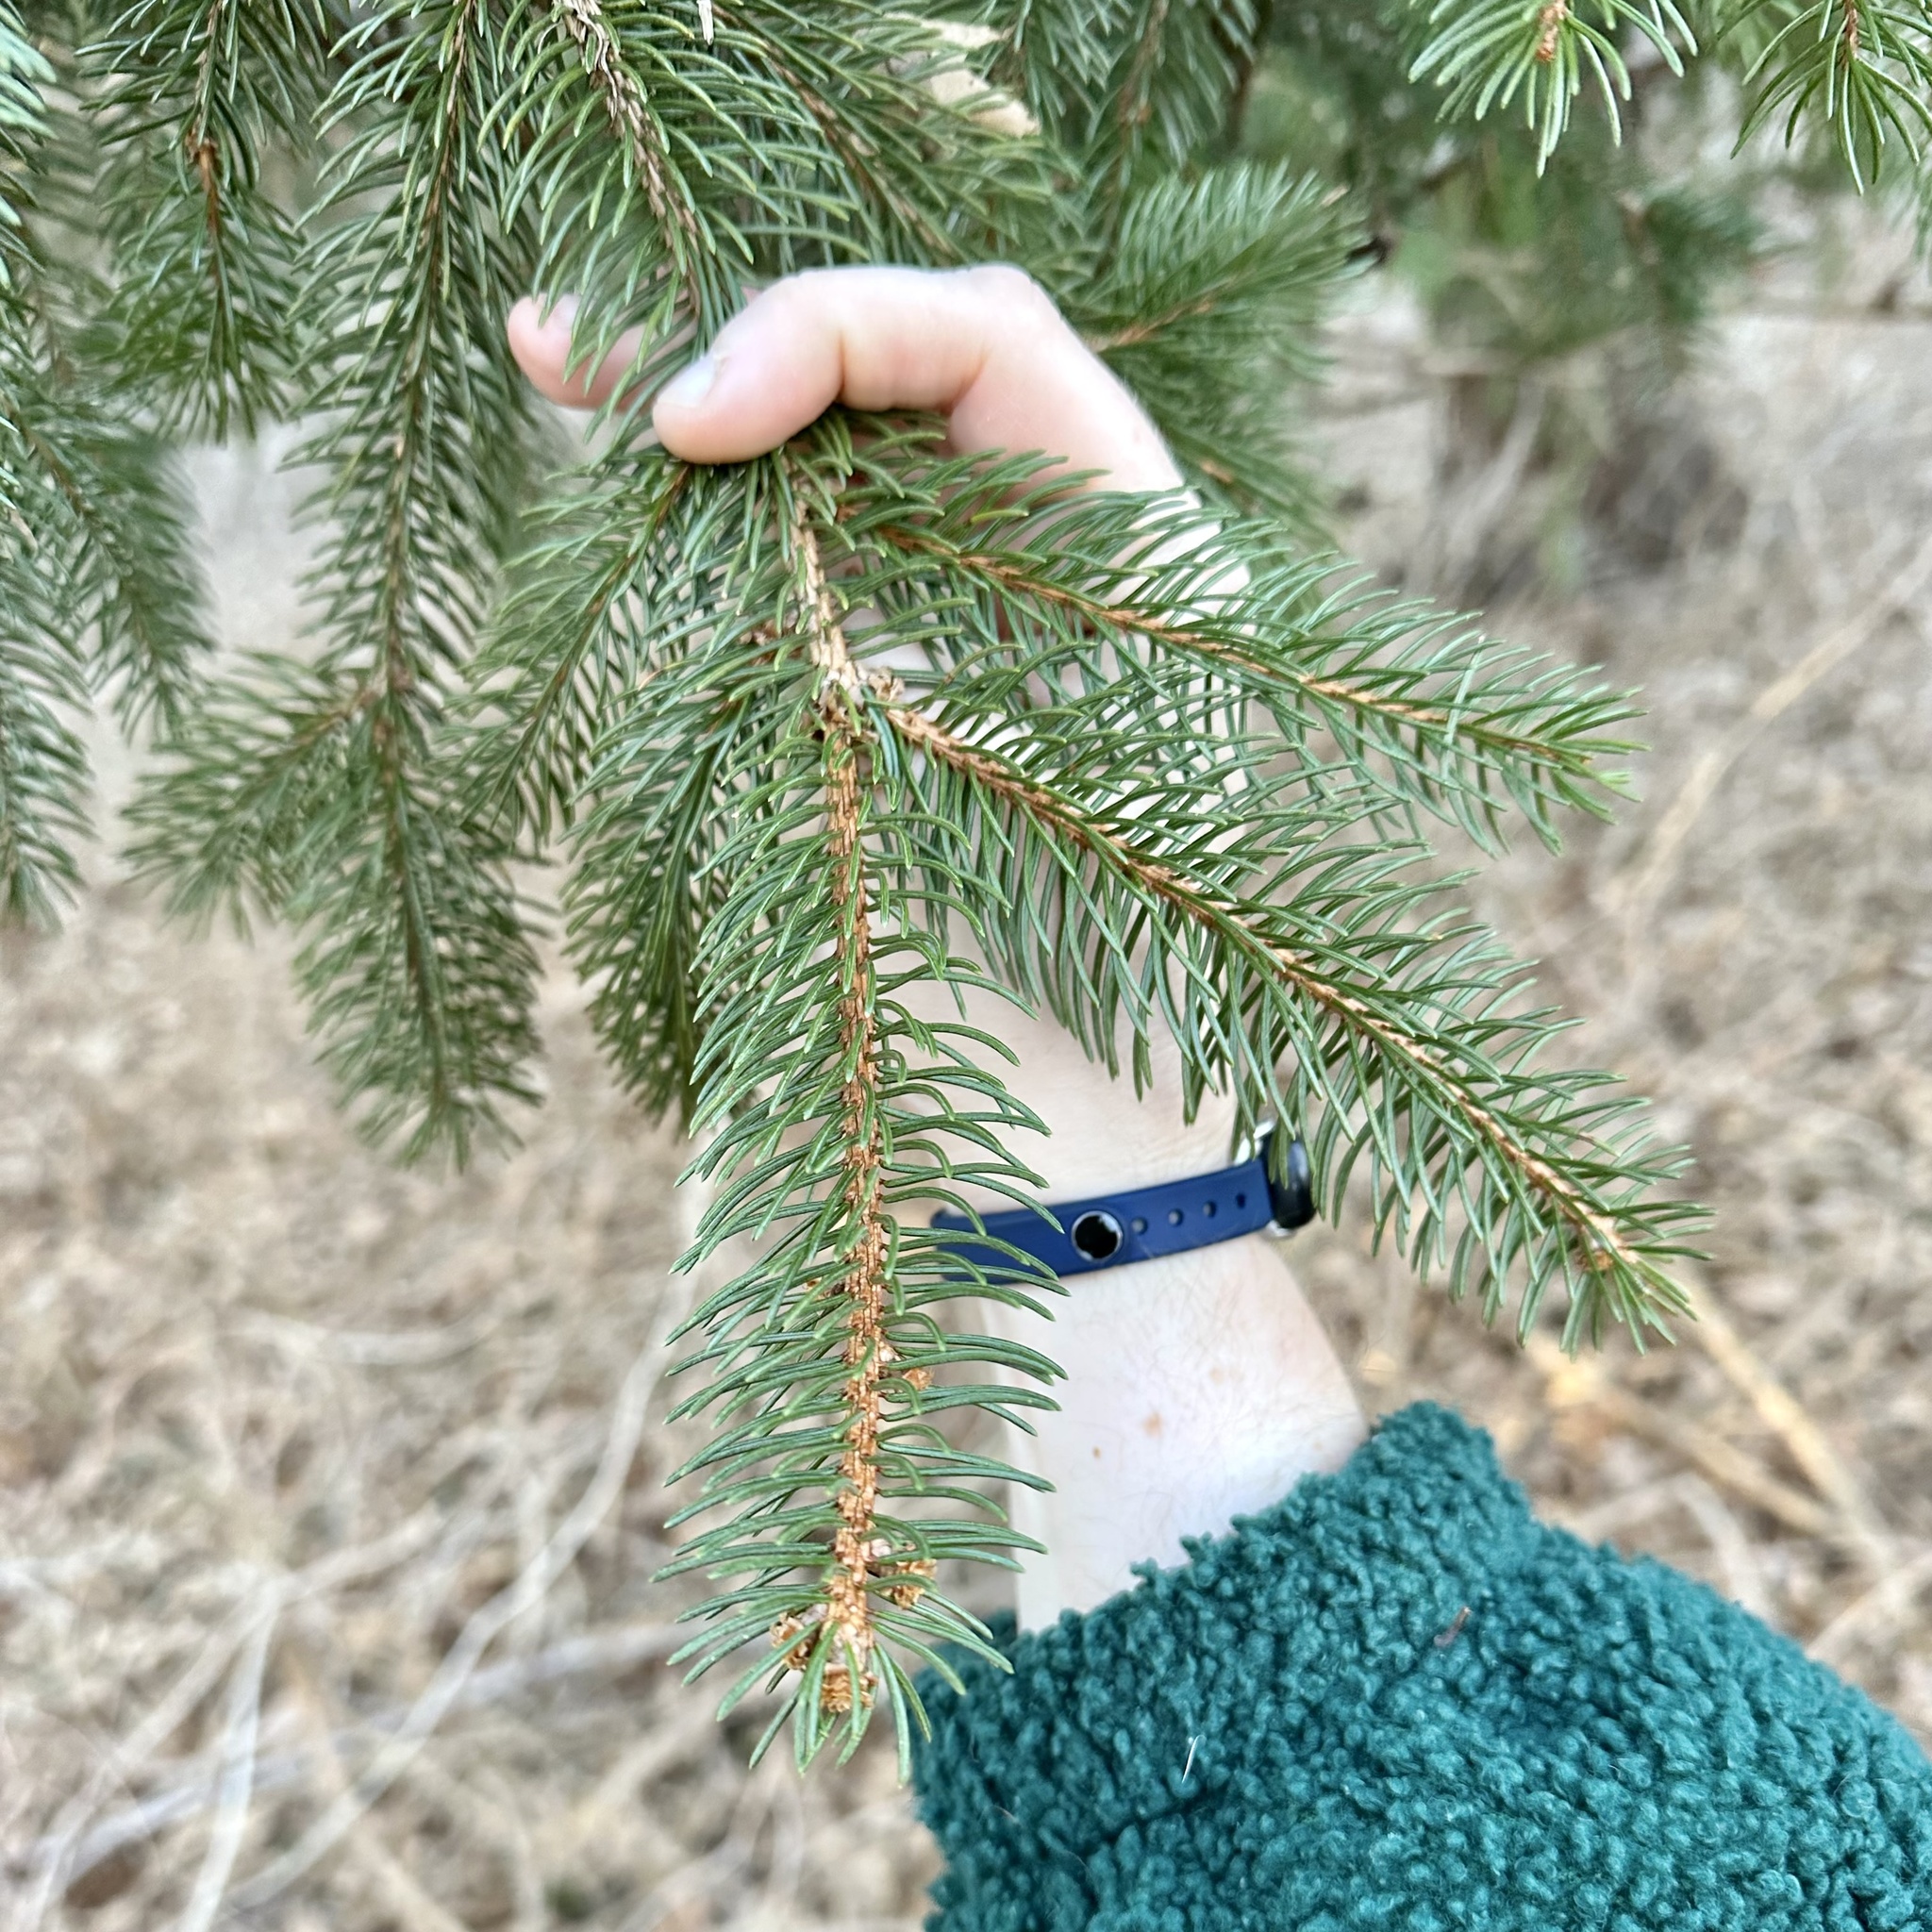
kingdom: Plantae
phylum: Tracheophyta
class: Pinopsida
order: Pinales
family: Pinaceae
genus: Picea
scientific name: Picea abies
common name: Norway spruce
